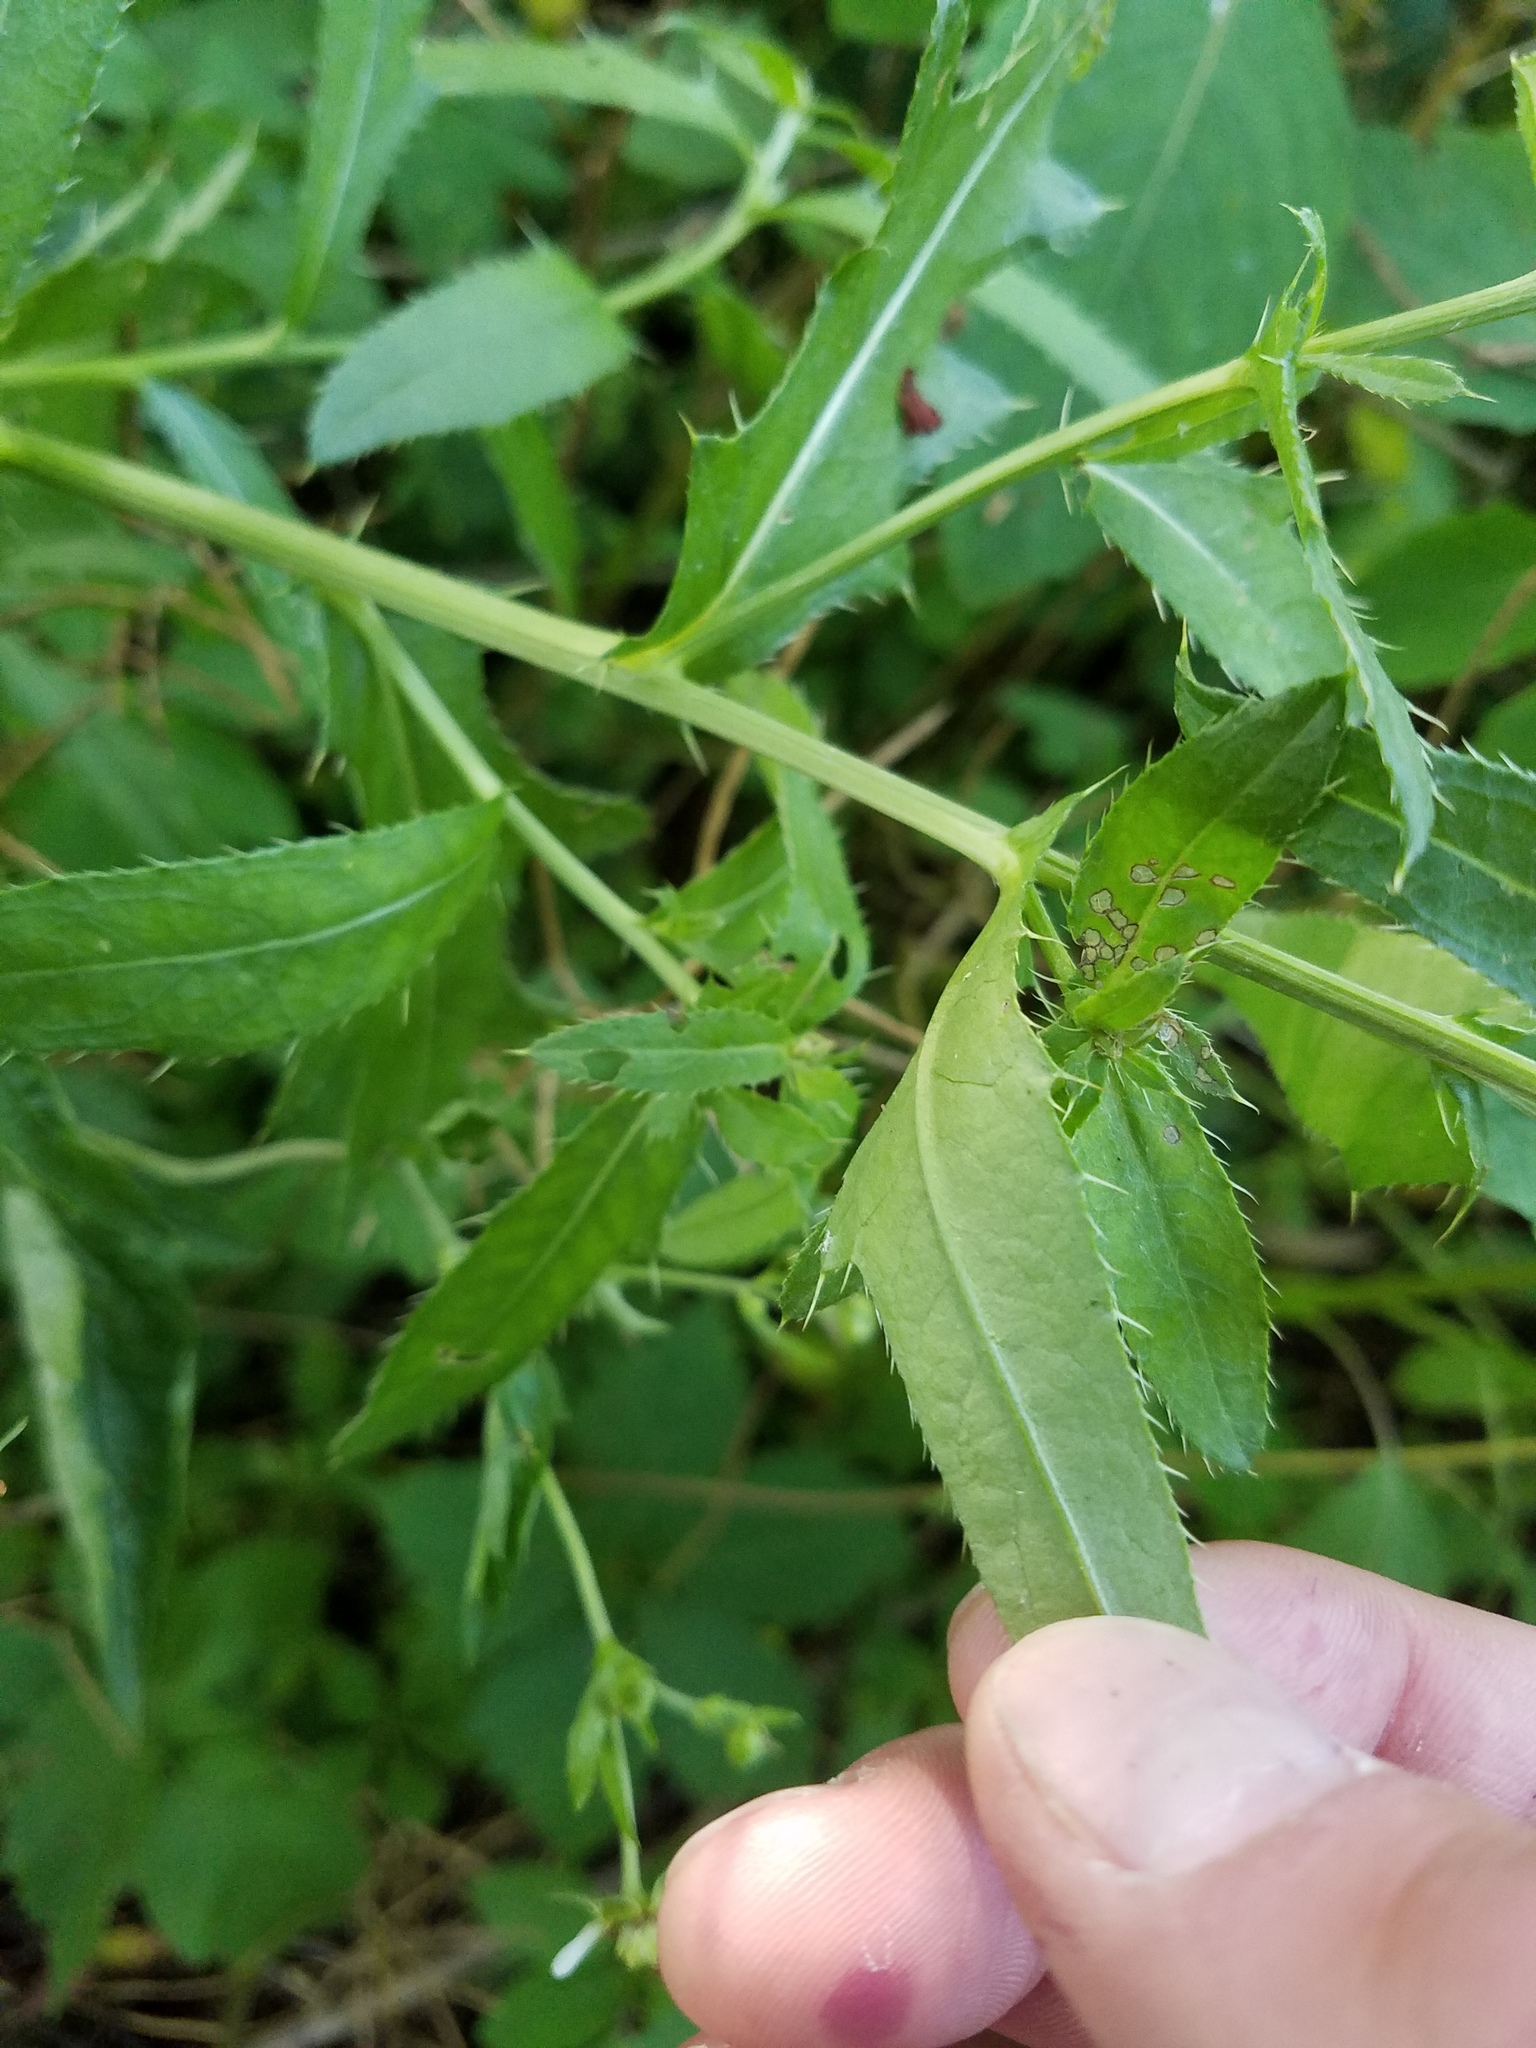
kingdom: Plantae
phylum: Tracheophyta
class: Magnoliopsida
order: Asterales
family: Asteraceae
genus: Cirsium
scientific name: Cirsium arvense
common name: Creeping thistle
